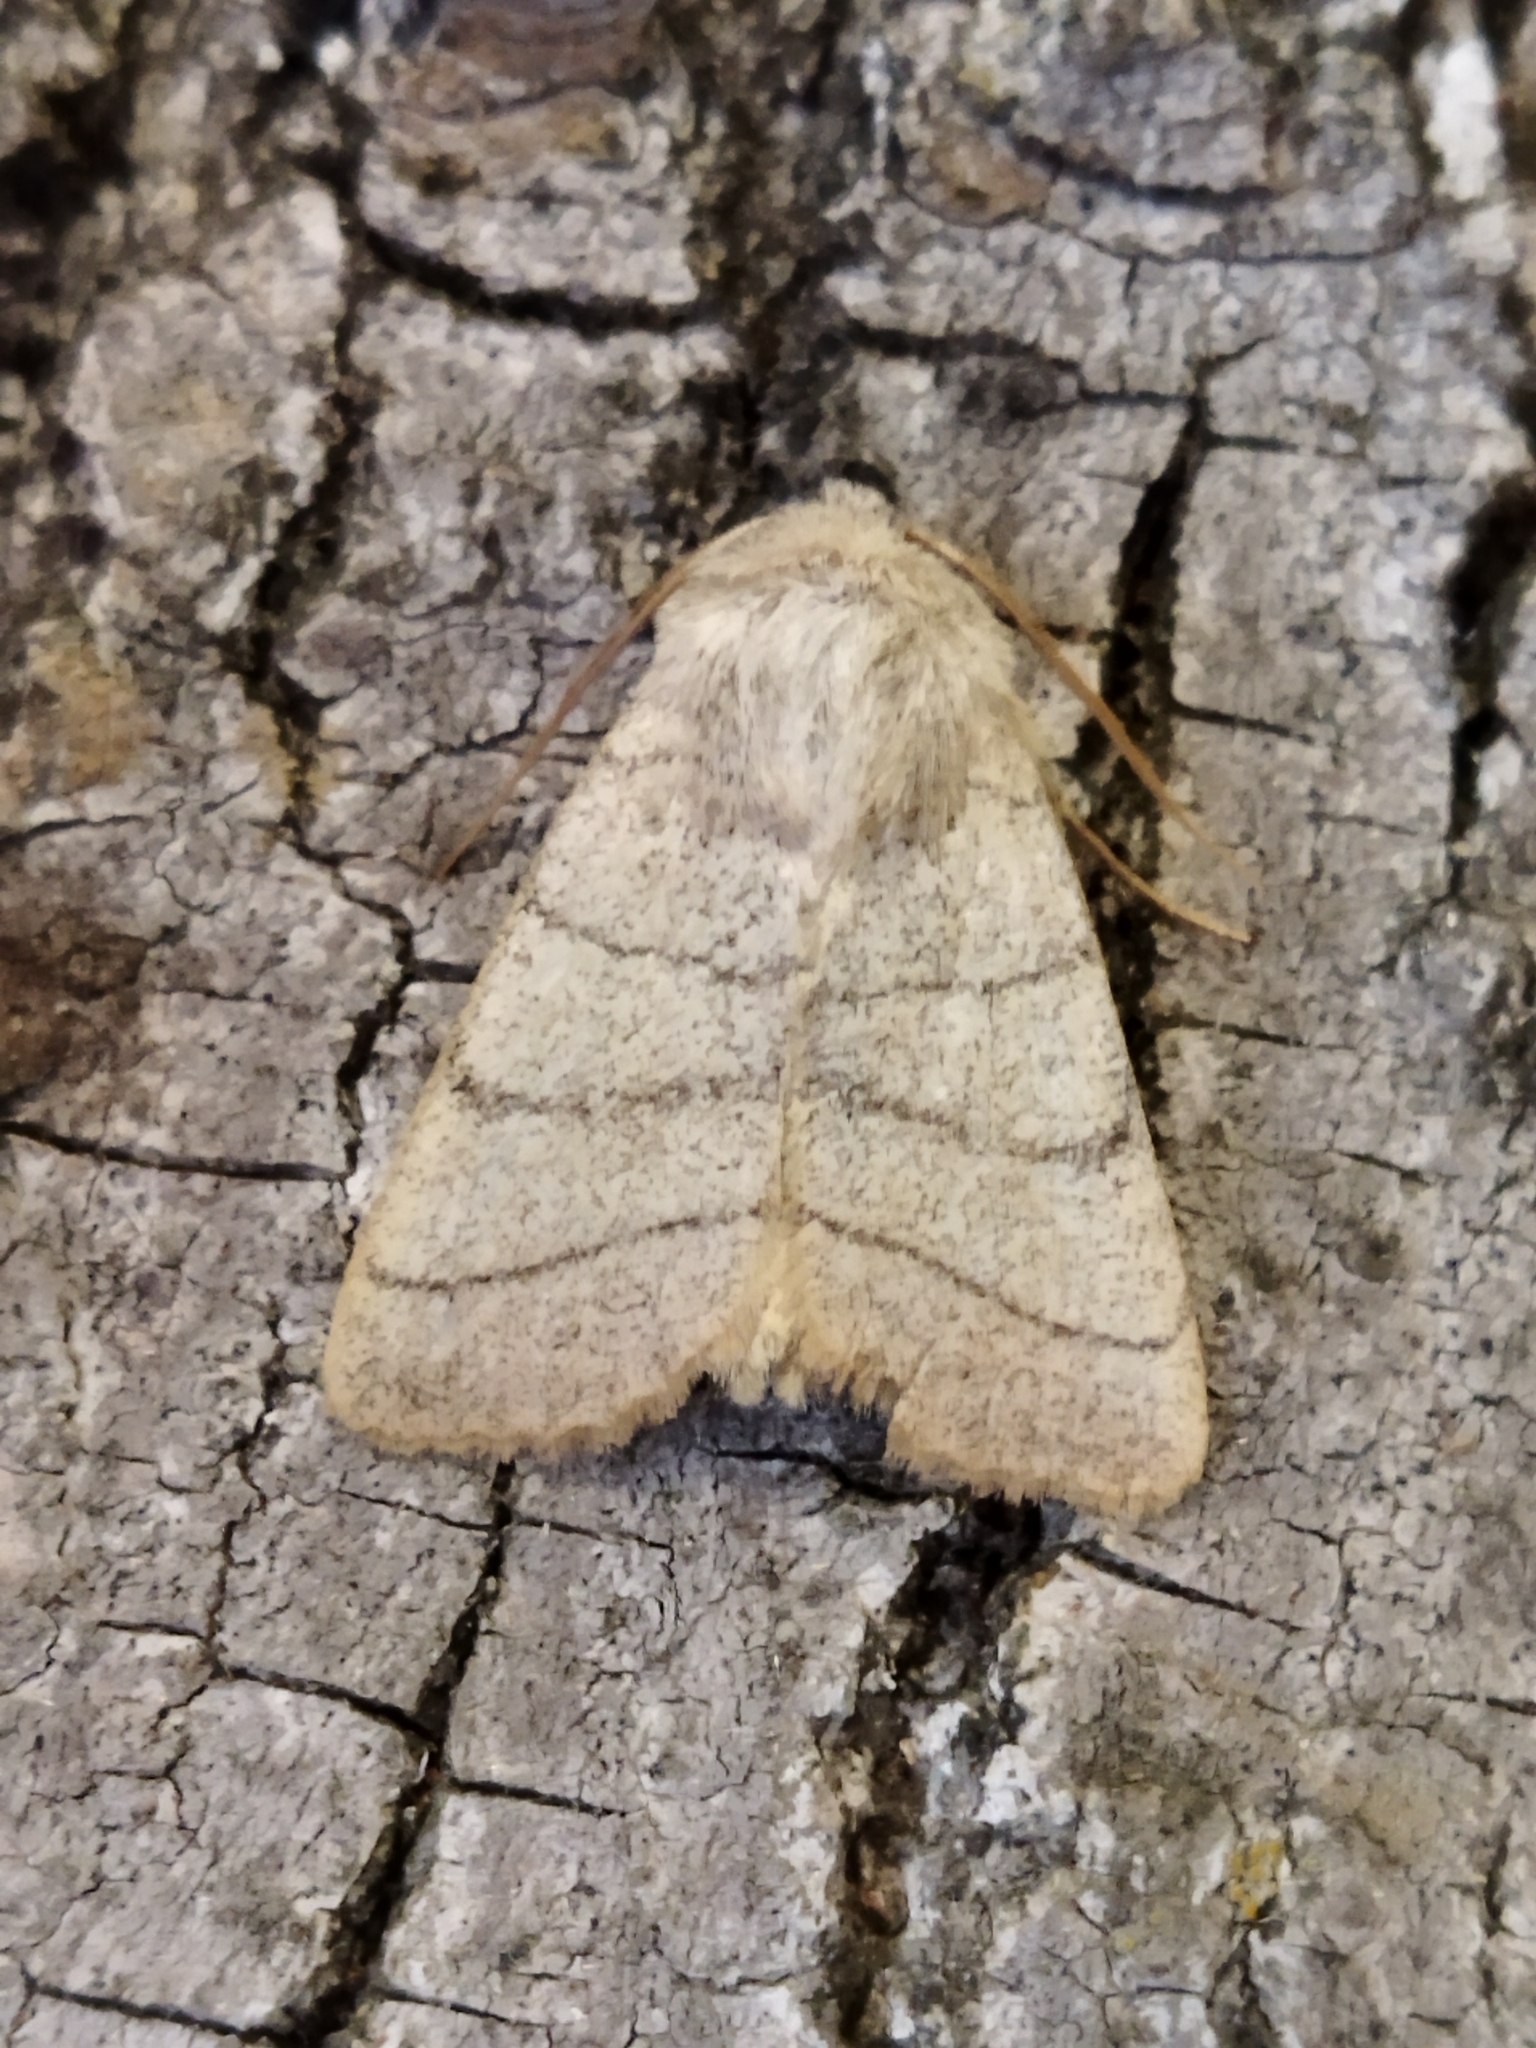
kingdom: Animalia
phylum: Arthropoda
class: Insecta
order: Lepidoptera
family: Noctuidae
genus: Charanyca
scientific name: Charanyca trigrammica
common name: Treble lines
